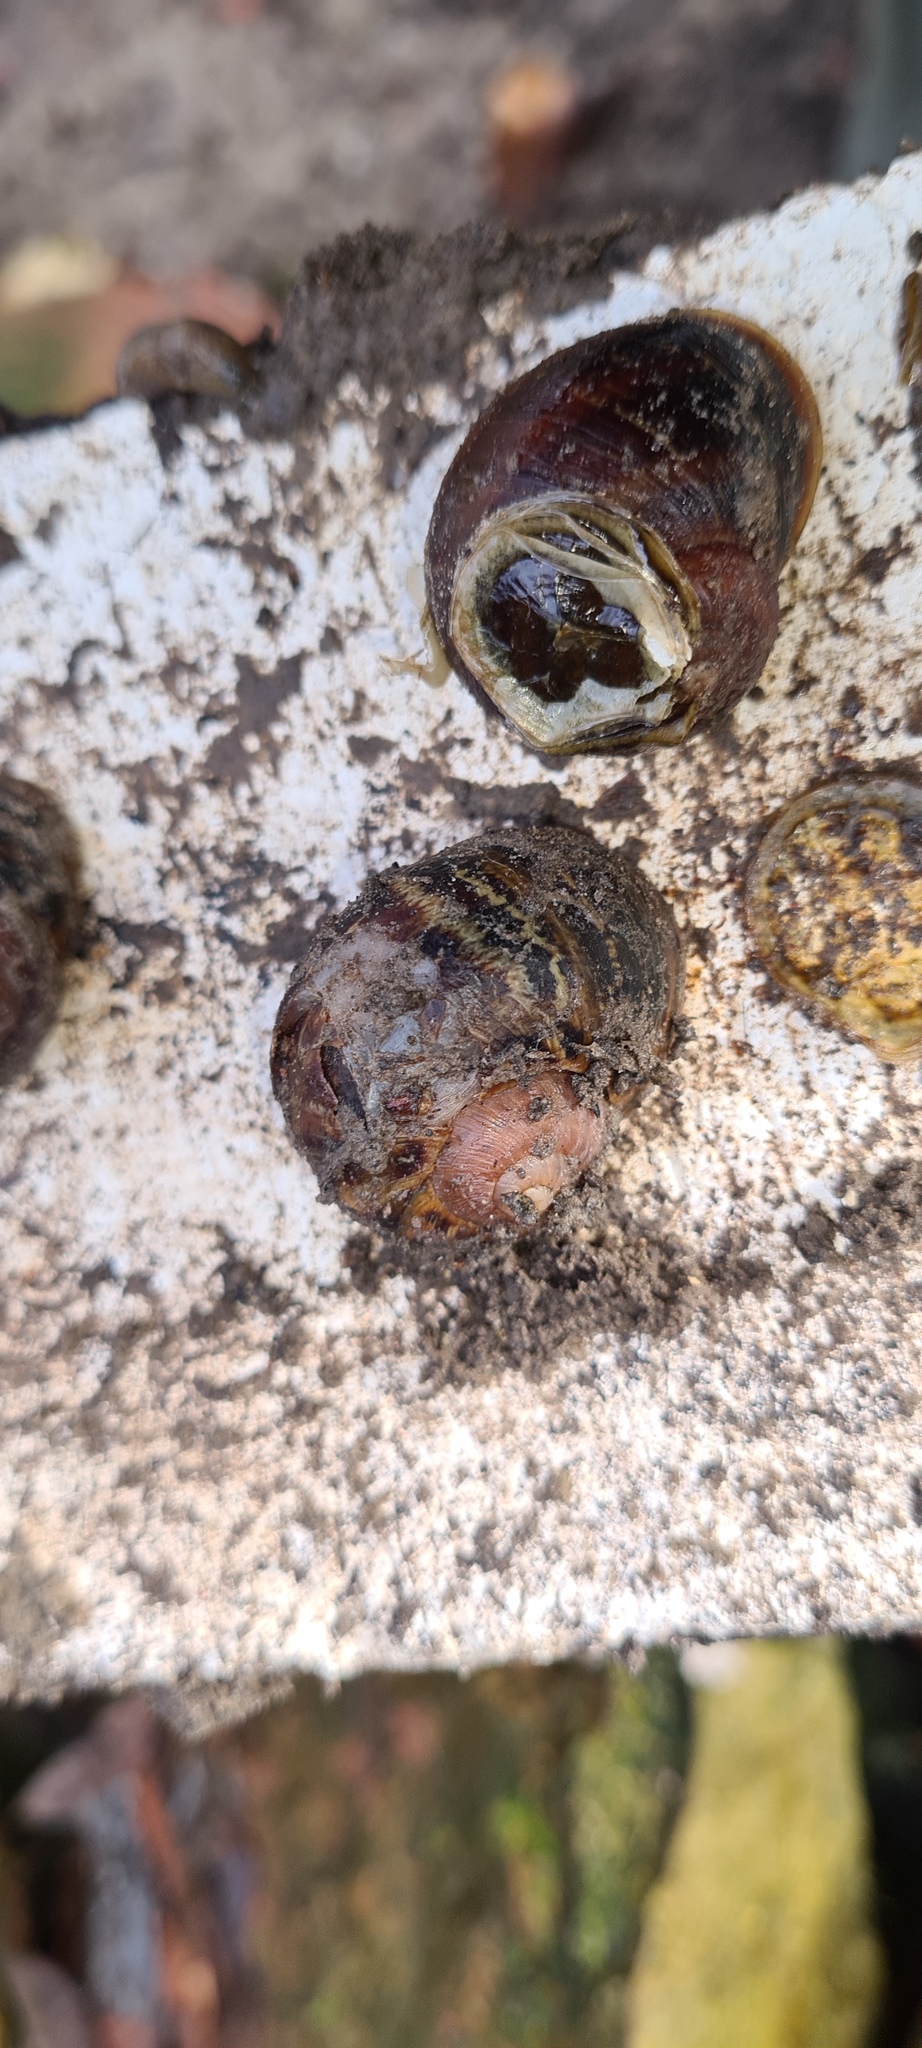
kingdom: Animalia
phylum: Mollusca
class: Gastropoda
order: Stylommatophora
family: Helicidae
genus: Cornu
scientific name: Cornu aspersum
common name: Brown garden snail
